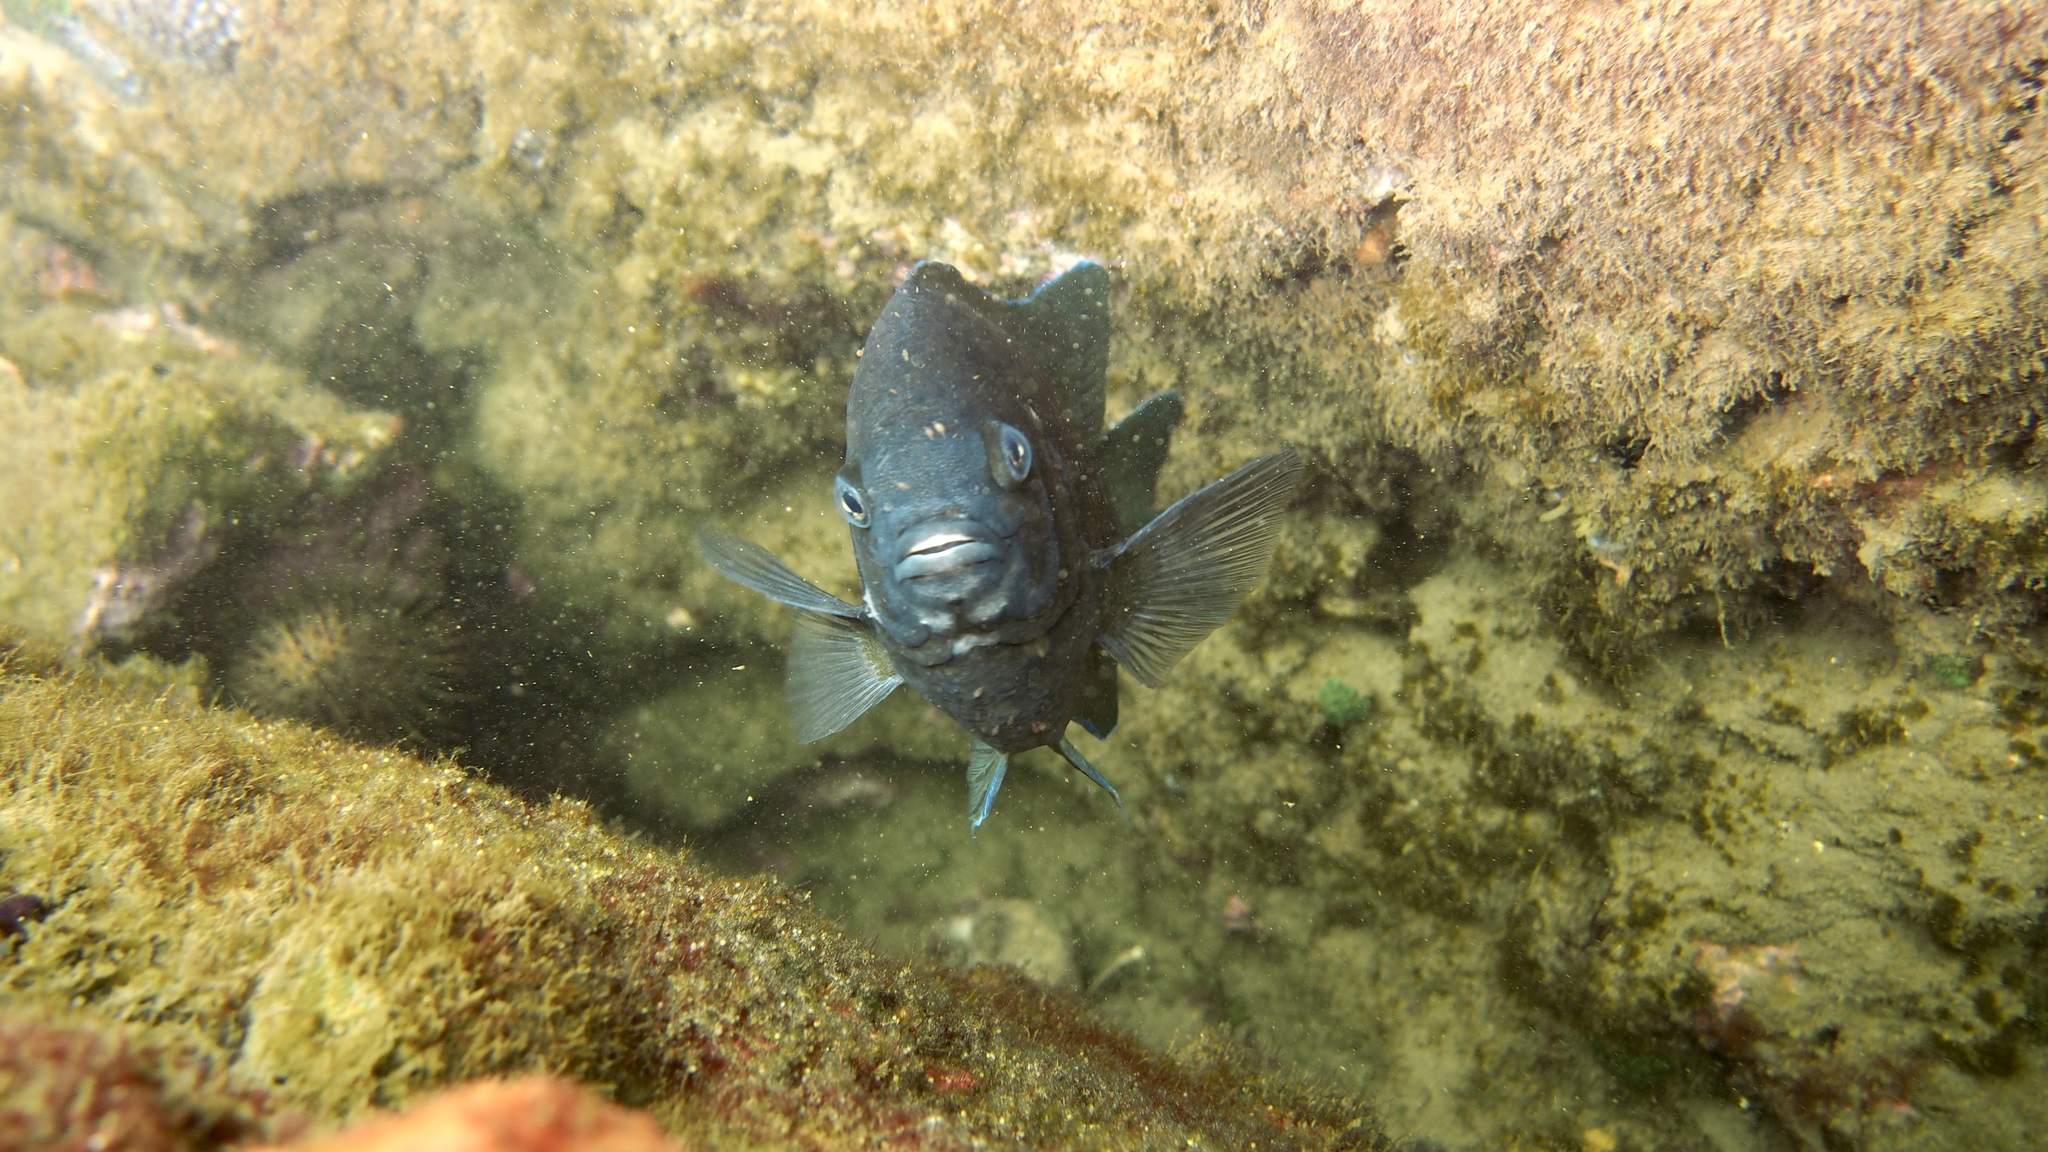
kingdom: Animalia
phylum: Chordata
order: Perciformes
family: Pomacentridae
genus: Parma
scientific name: Parma victoriae
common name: Rock perch
